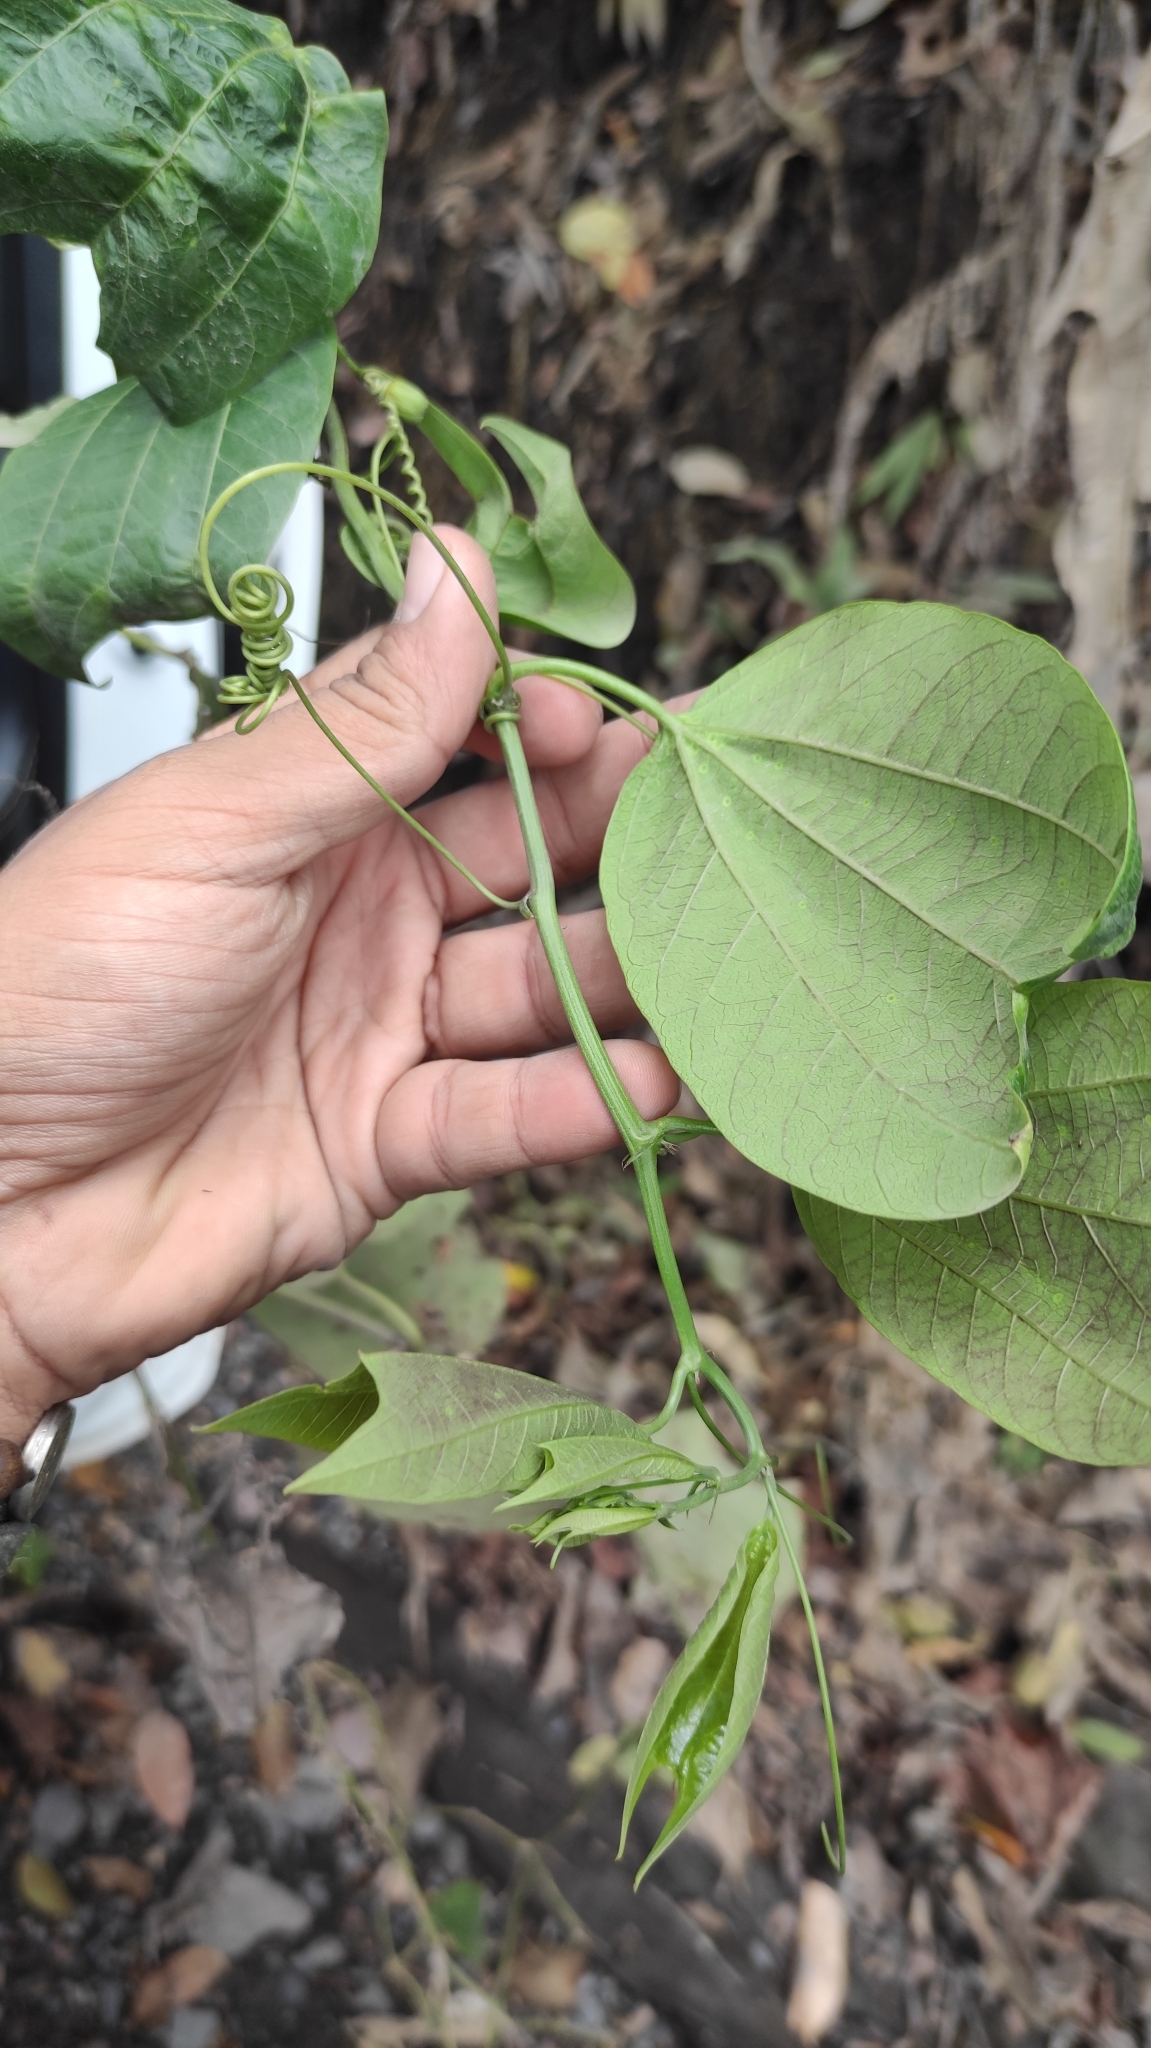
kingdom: Plantae
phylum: Tracheophyta
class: Magnoliopsida
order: Malpighiales
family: Passifloraceae
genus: Passiflora
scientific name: Passiflora dawei
